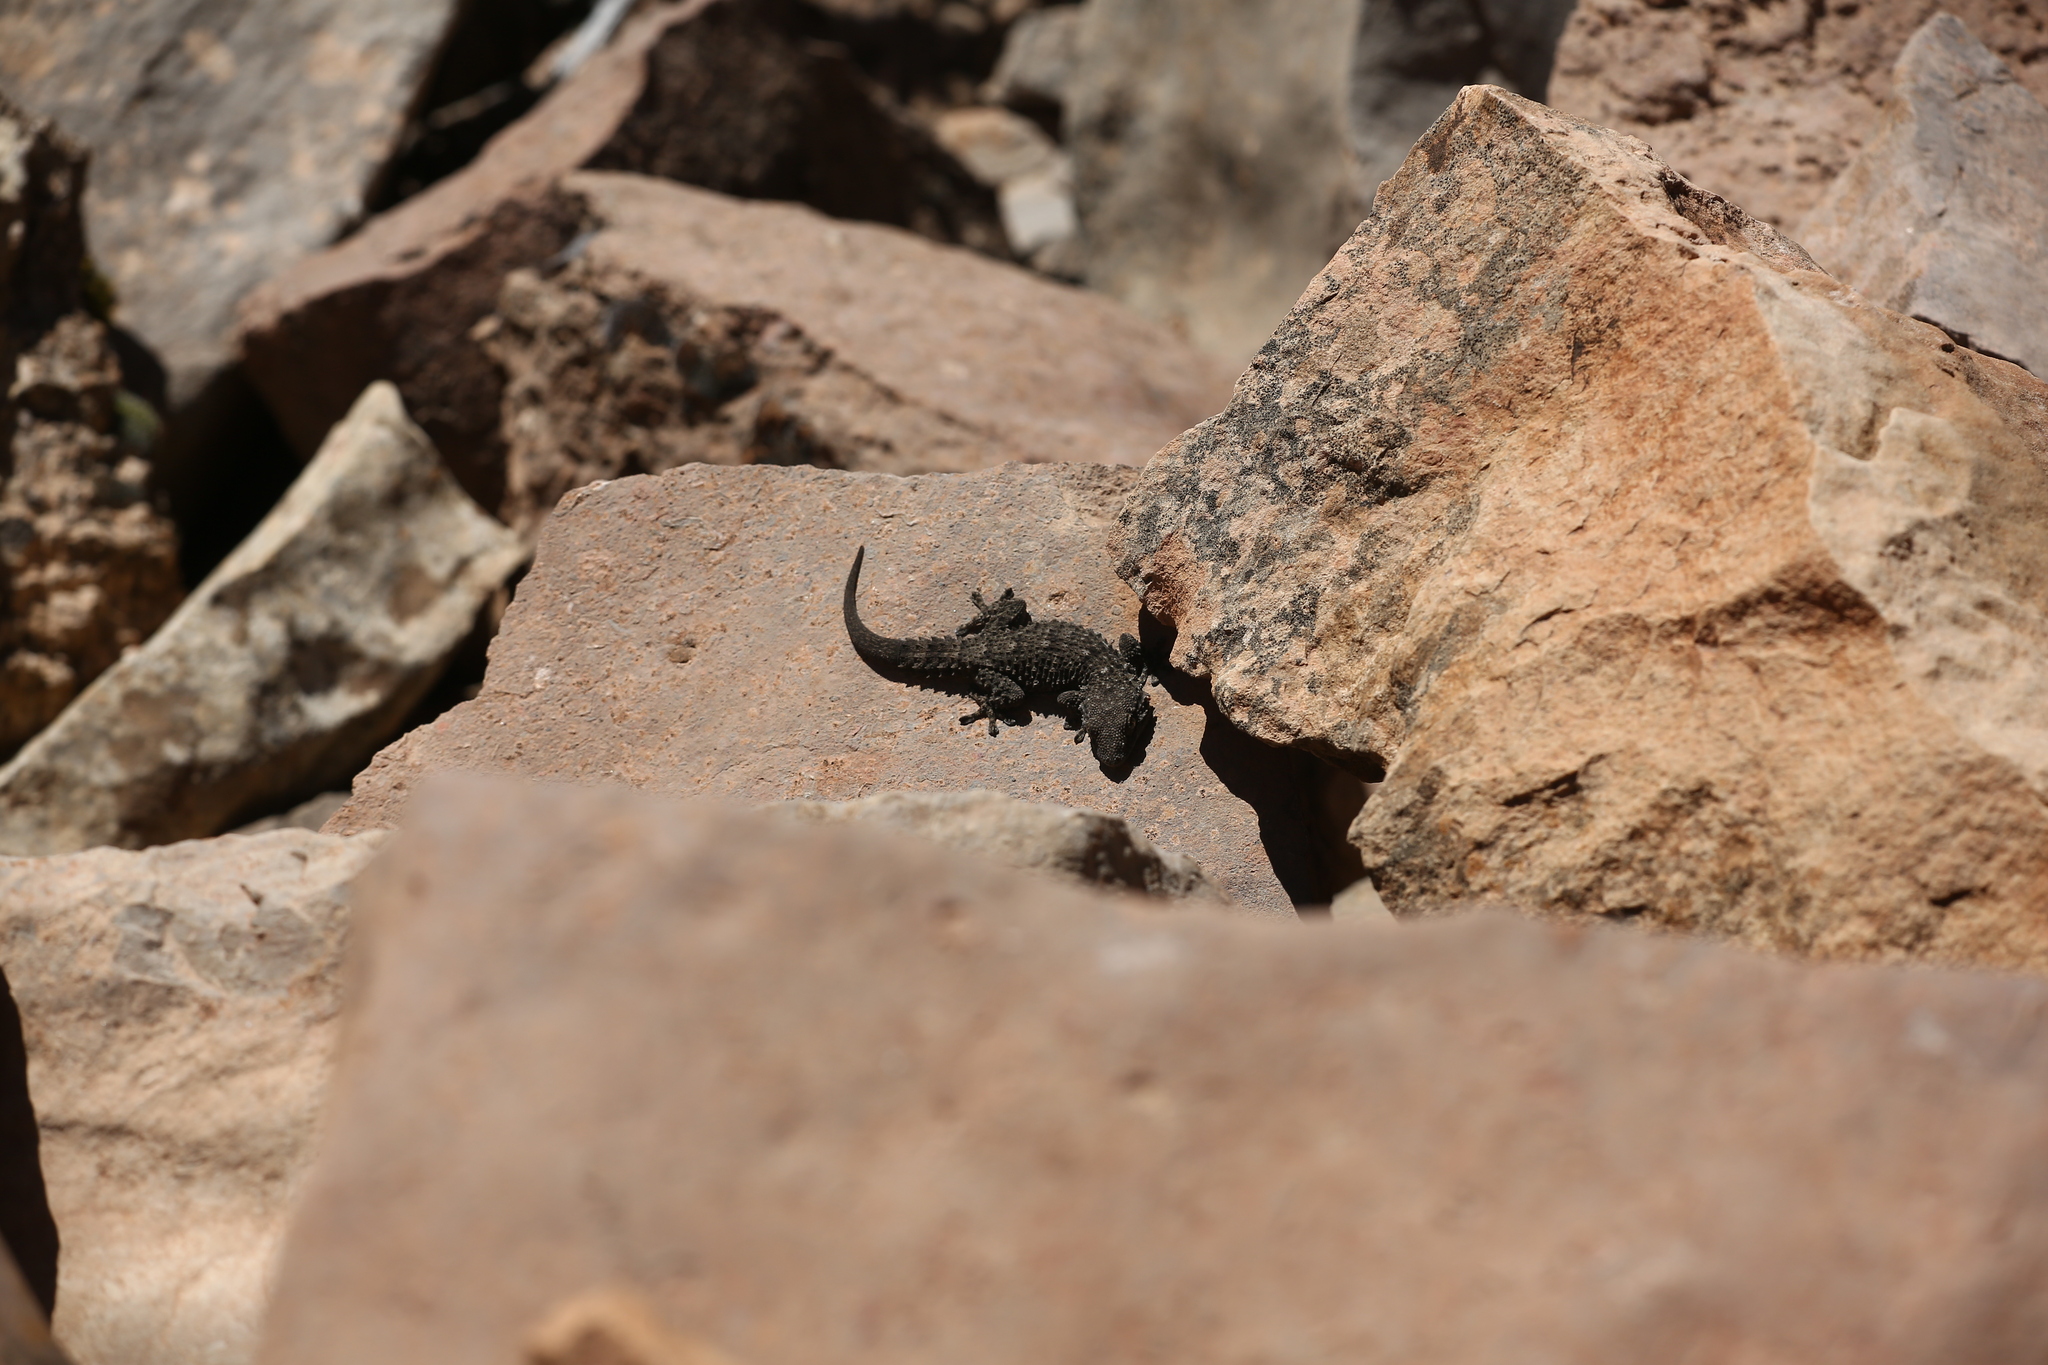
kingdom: Animalia
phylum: Chordata
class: Squamata
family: Phyllodactylidae
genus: Tarentola
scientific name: Tarentola mauritanica
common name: Moorish gecko
